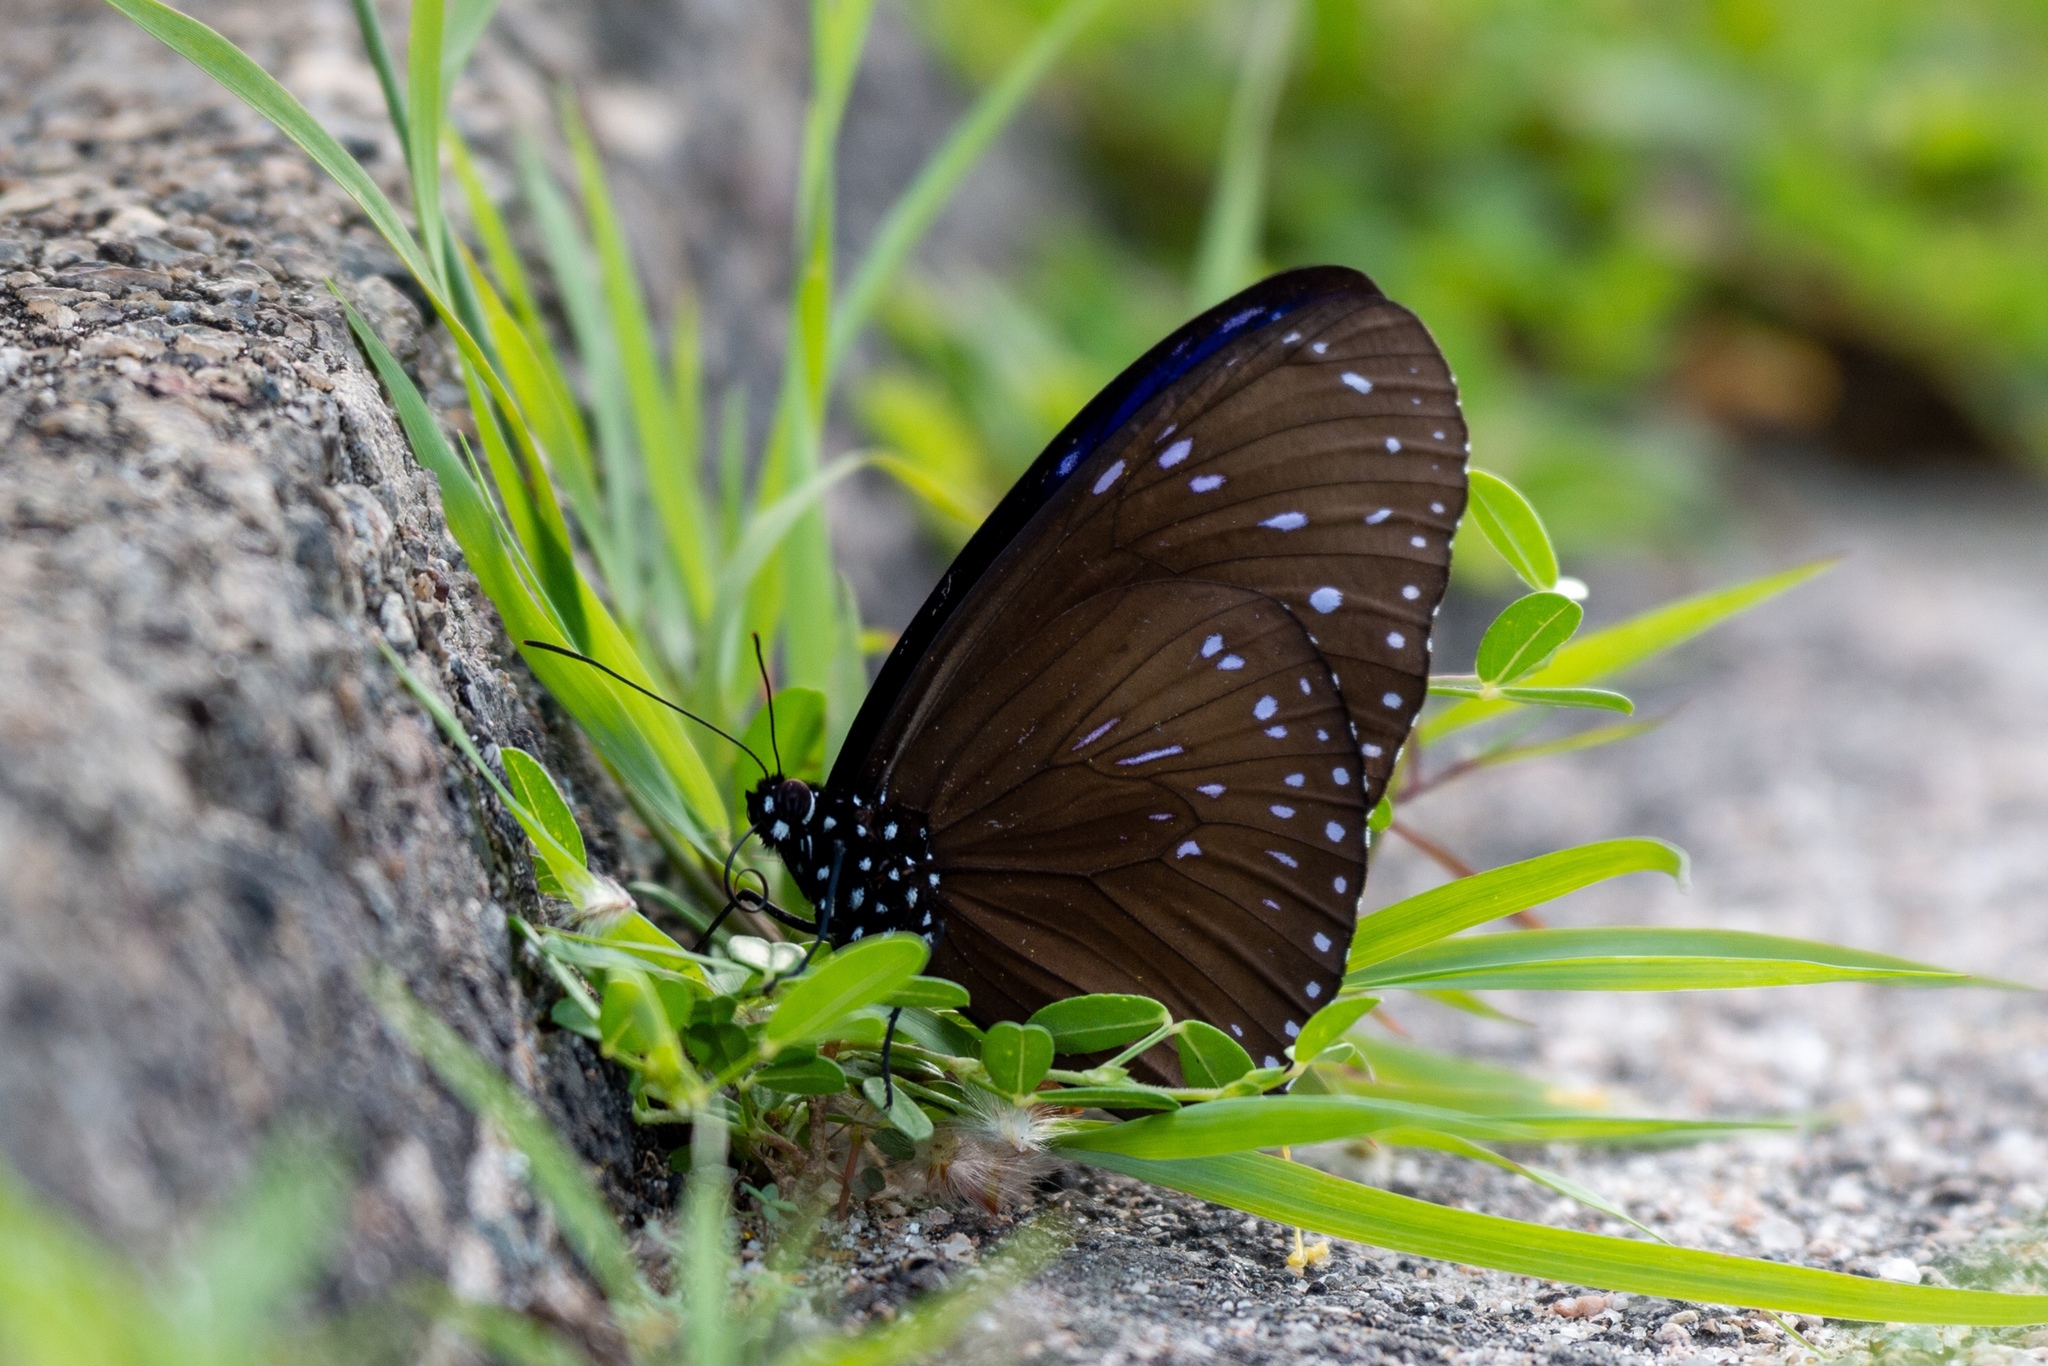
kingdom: Animalia
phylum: Arthropoda
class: Insecta
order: Lepidoptera
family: Nymphalidae
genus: Euploea
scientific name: Euploea mulciber
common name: Striped blue crow butterfly
